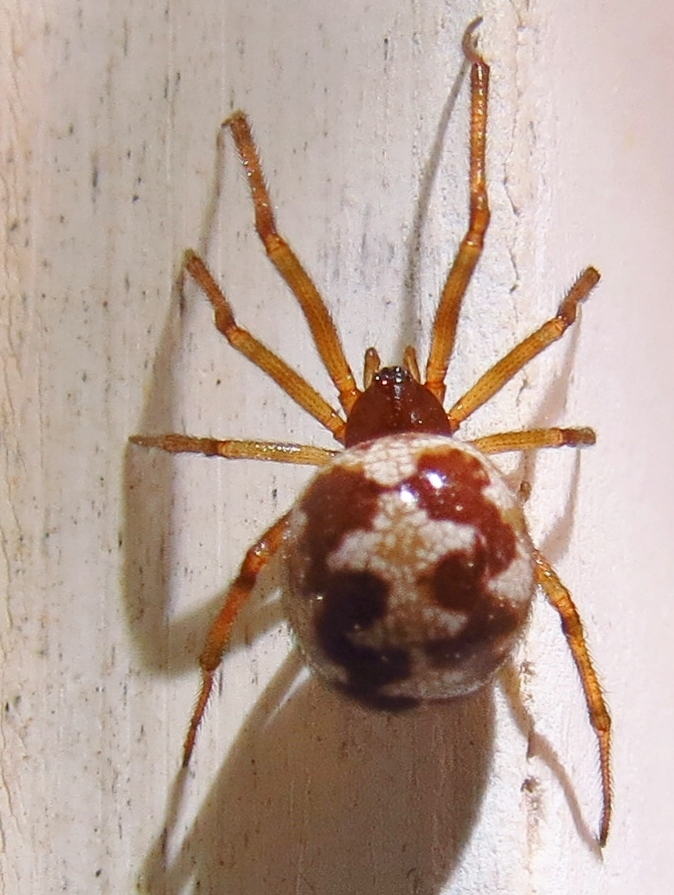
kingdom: Animalia
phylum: Arthropoda
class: Arachnida
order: Araneae
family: Theridiidae
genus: Steatoda
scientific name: Steatoda triangulosa
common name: Triangulate bud spider
